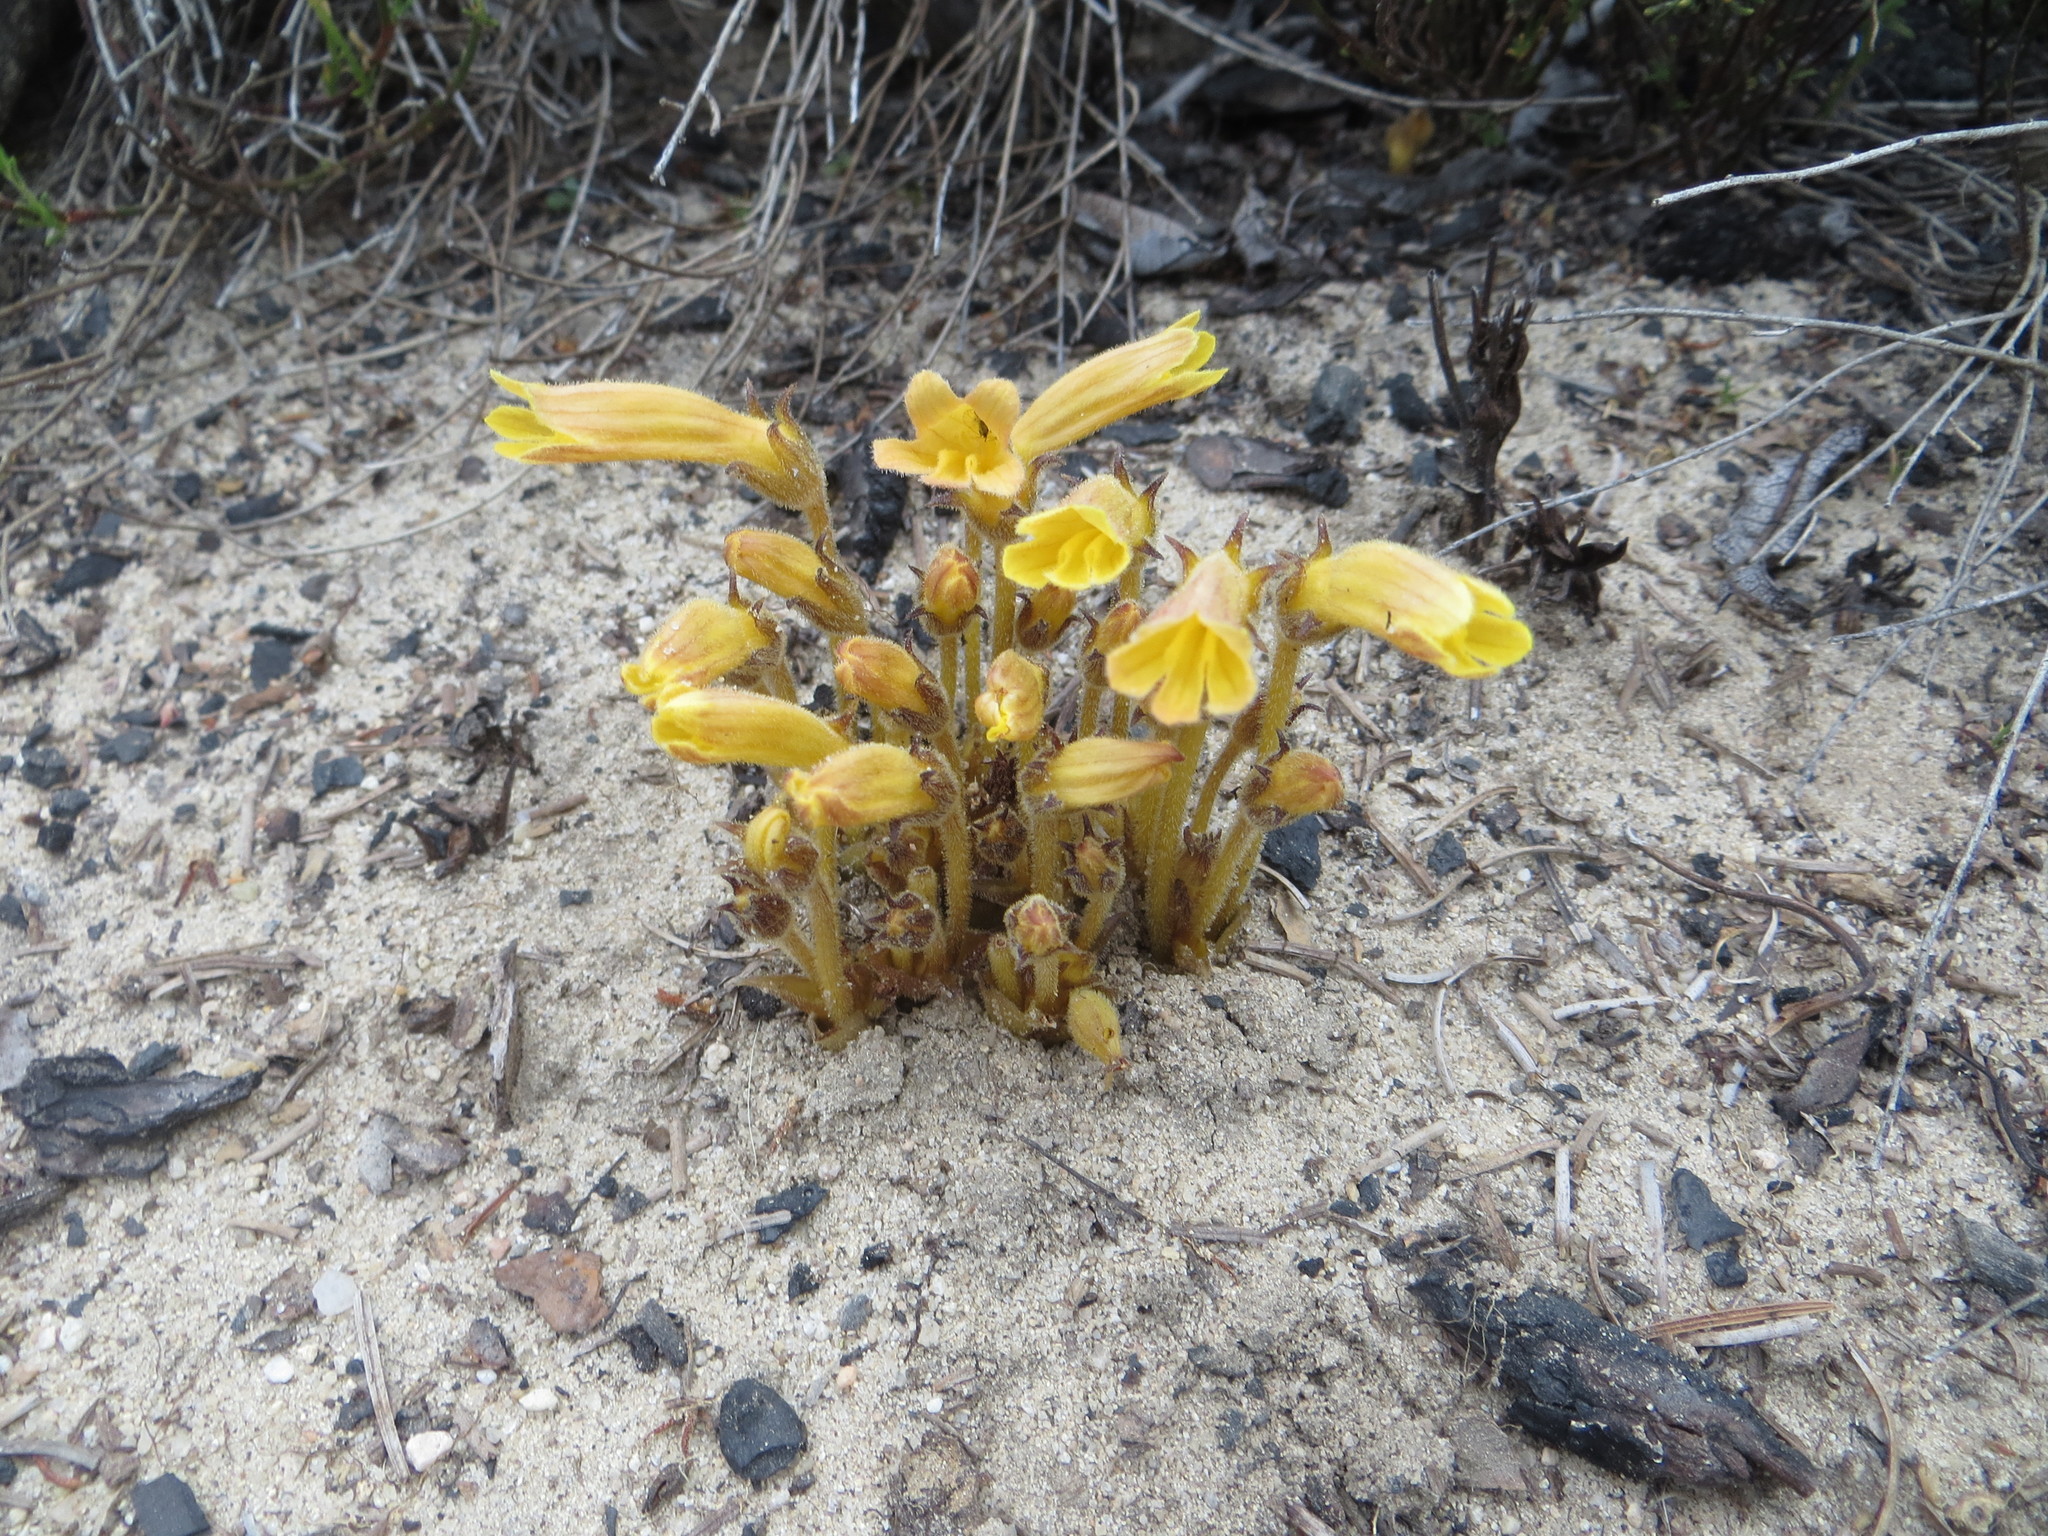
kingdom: Plantae
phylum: Tracheophyta
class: Magnoliopsida
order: Lamiales
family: Orobanchaceae
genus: Aphyllon
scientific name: Aphyllon franciscanum
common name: San francisco broomrape
